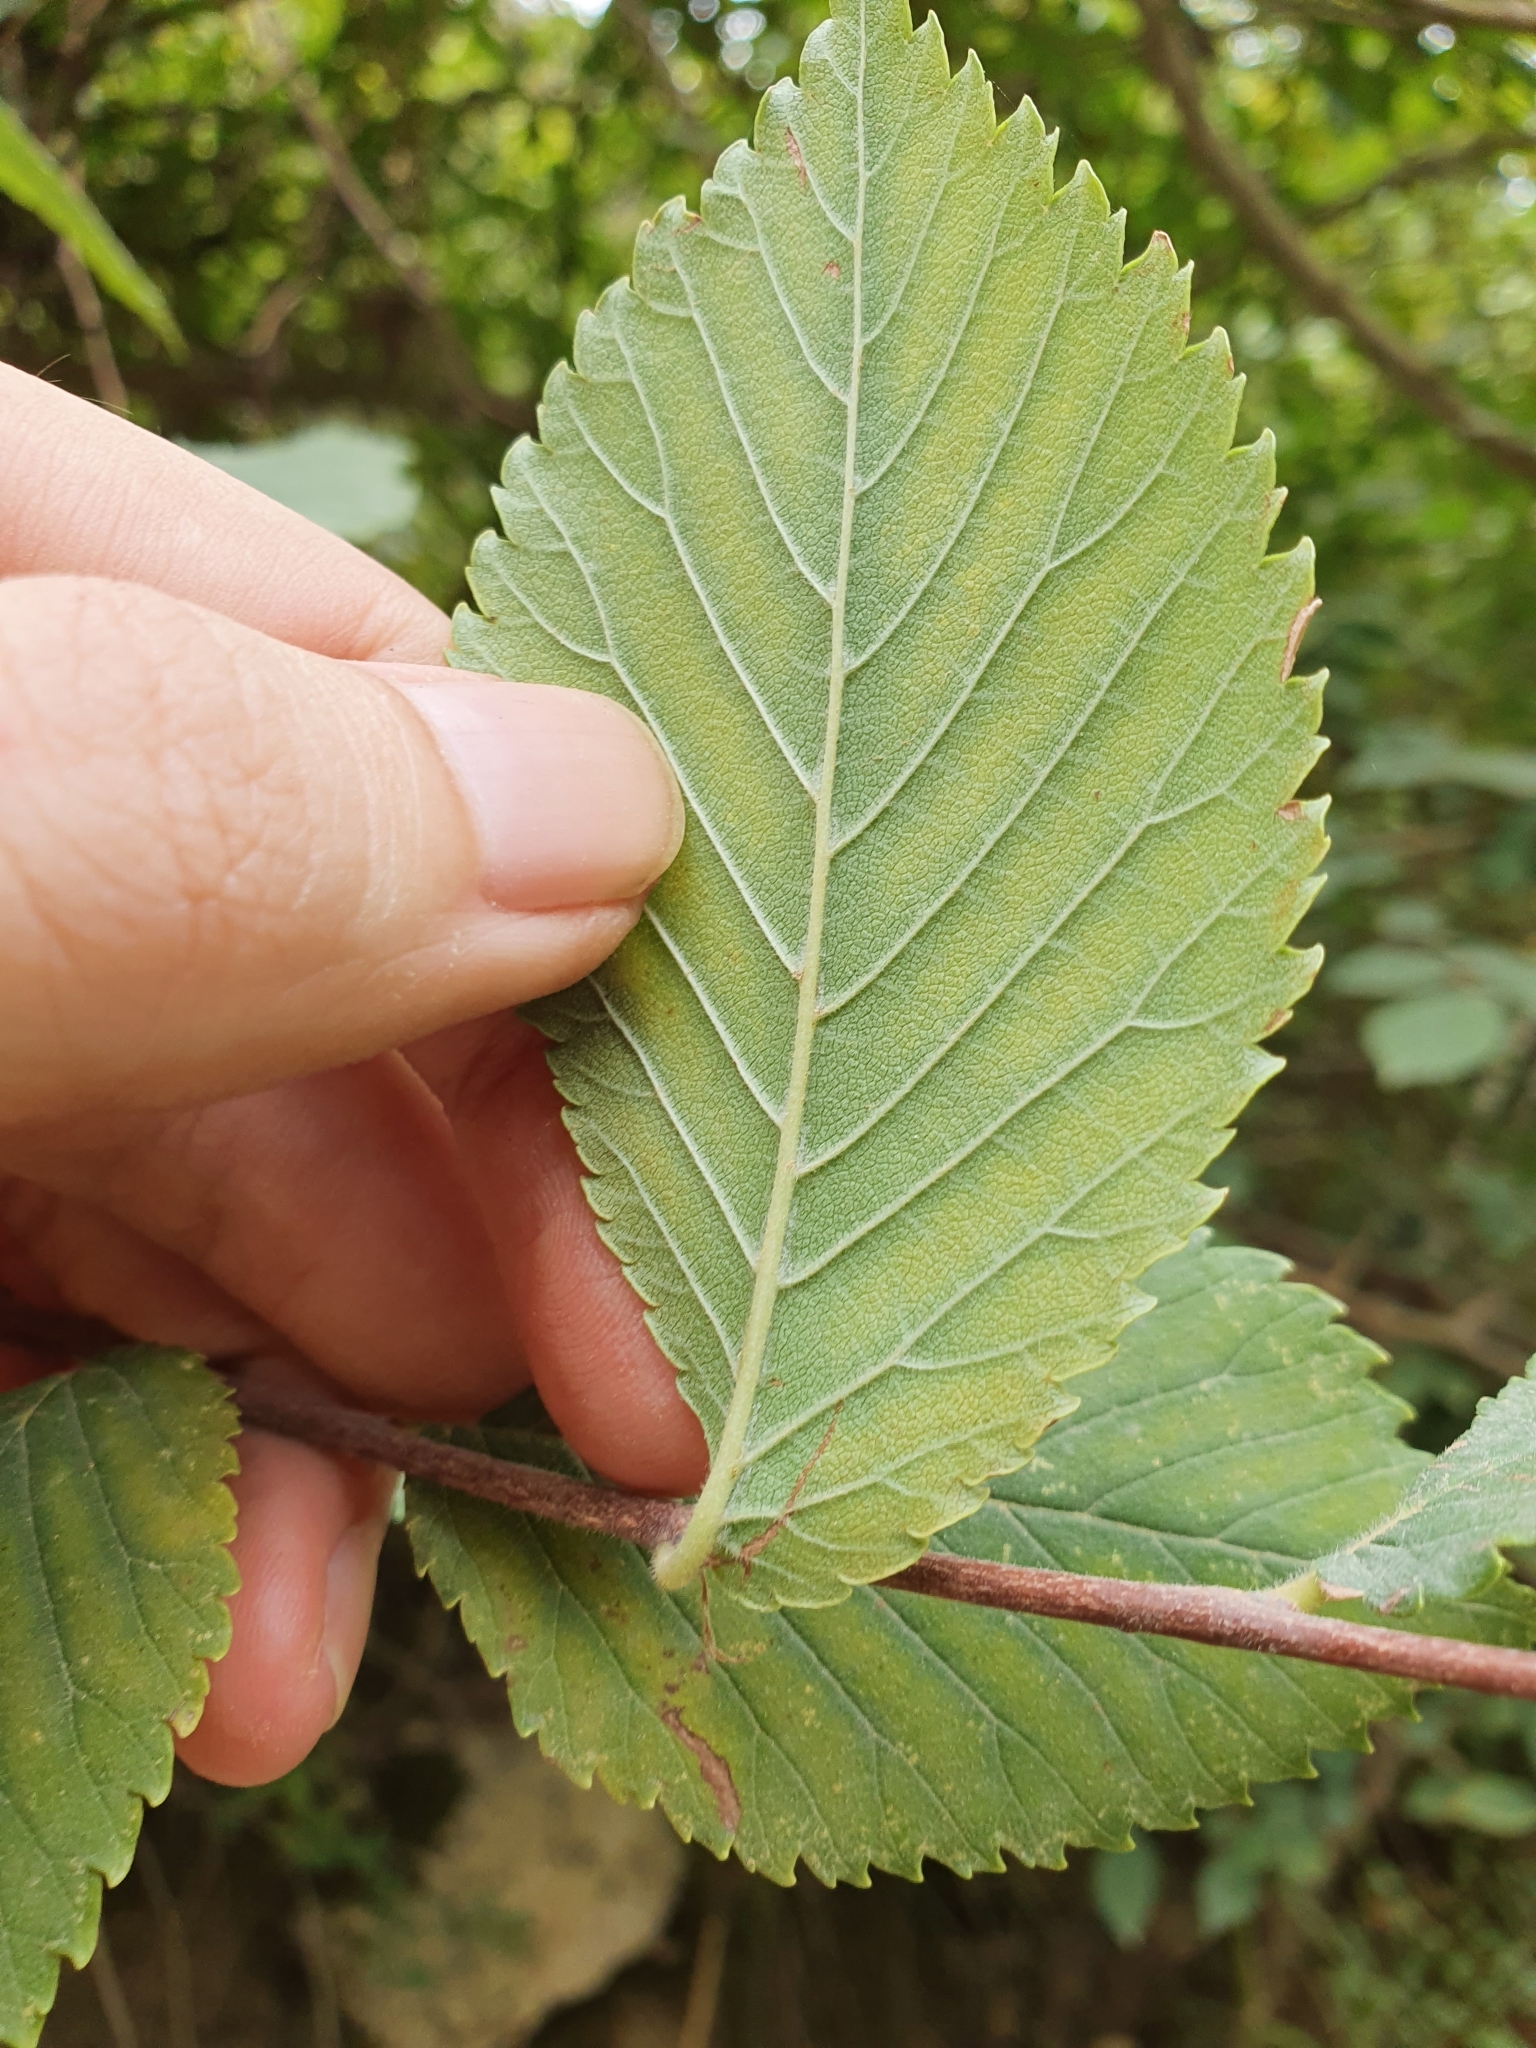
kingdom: Plantae
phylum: Tracheophyta
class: Magnoliopsida
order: Rosales
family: Ulmaceae
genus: Ulmus
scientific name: Ulmus minor
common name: Small-leaved elm
